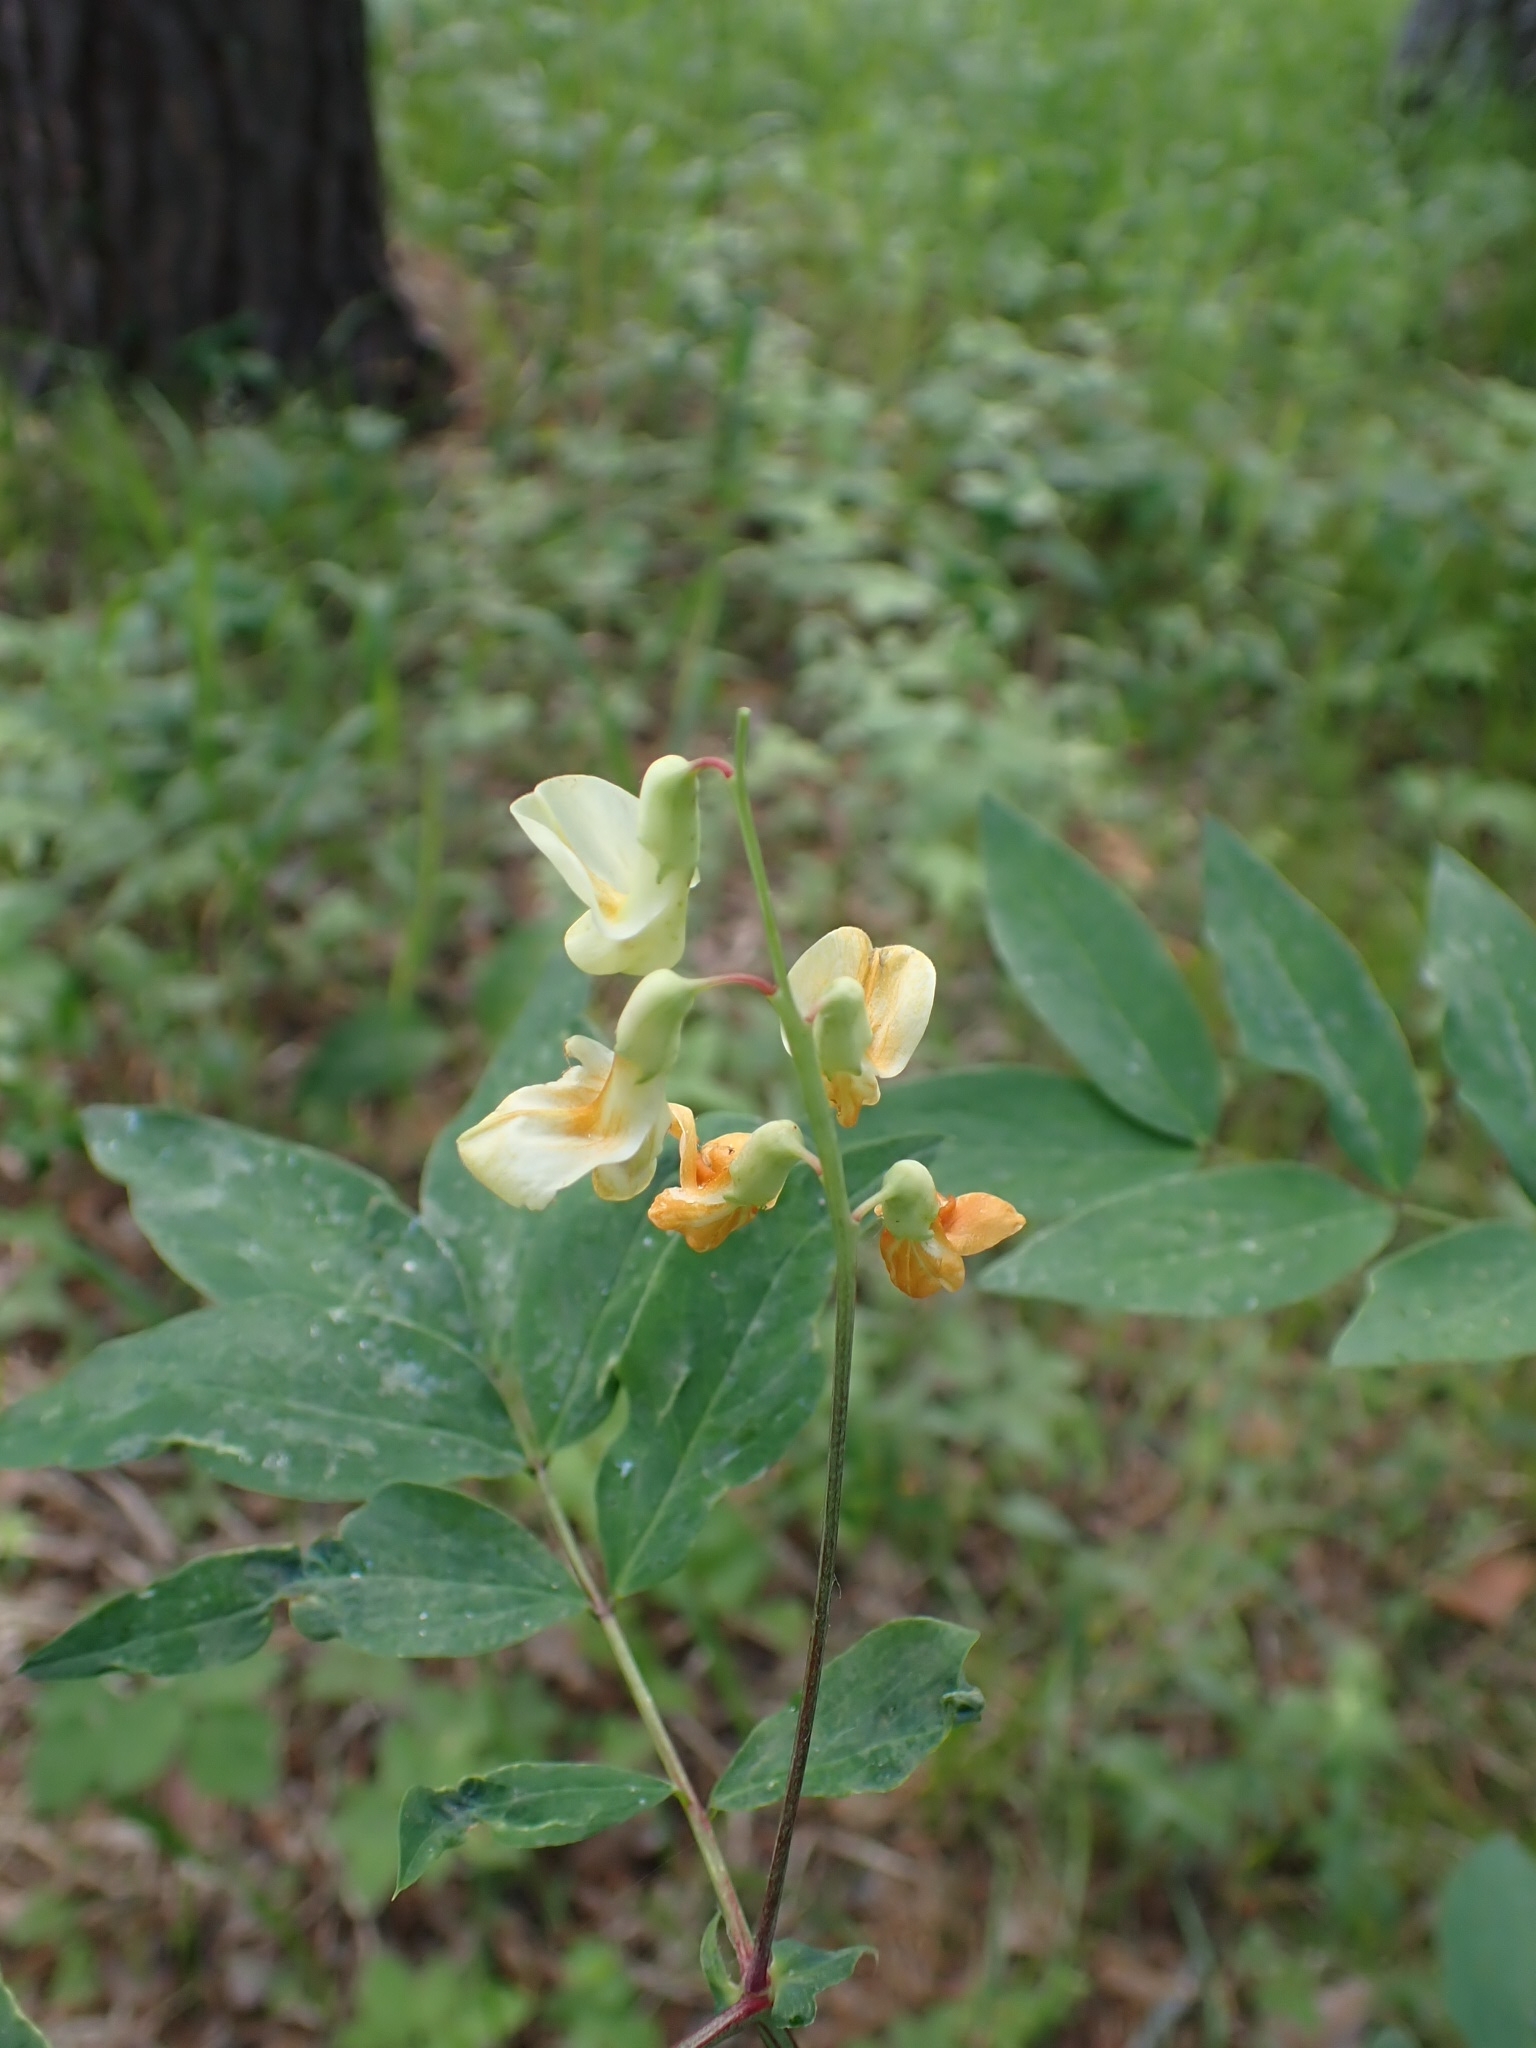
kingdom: Plantae
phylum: Tracheophyta
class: Magnoliopsida
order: Fabales
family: Fabaceae
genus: Lathyrus
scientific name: Lathyrus gmelinii
